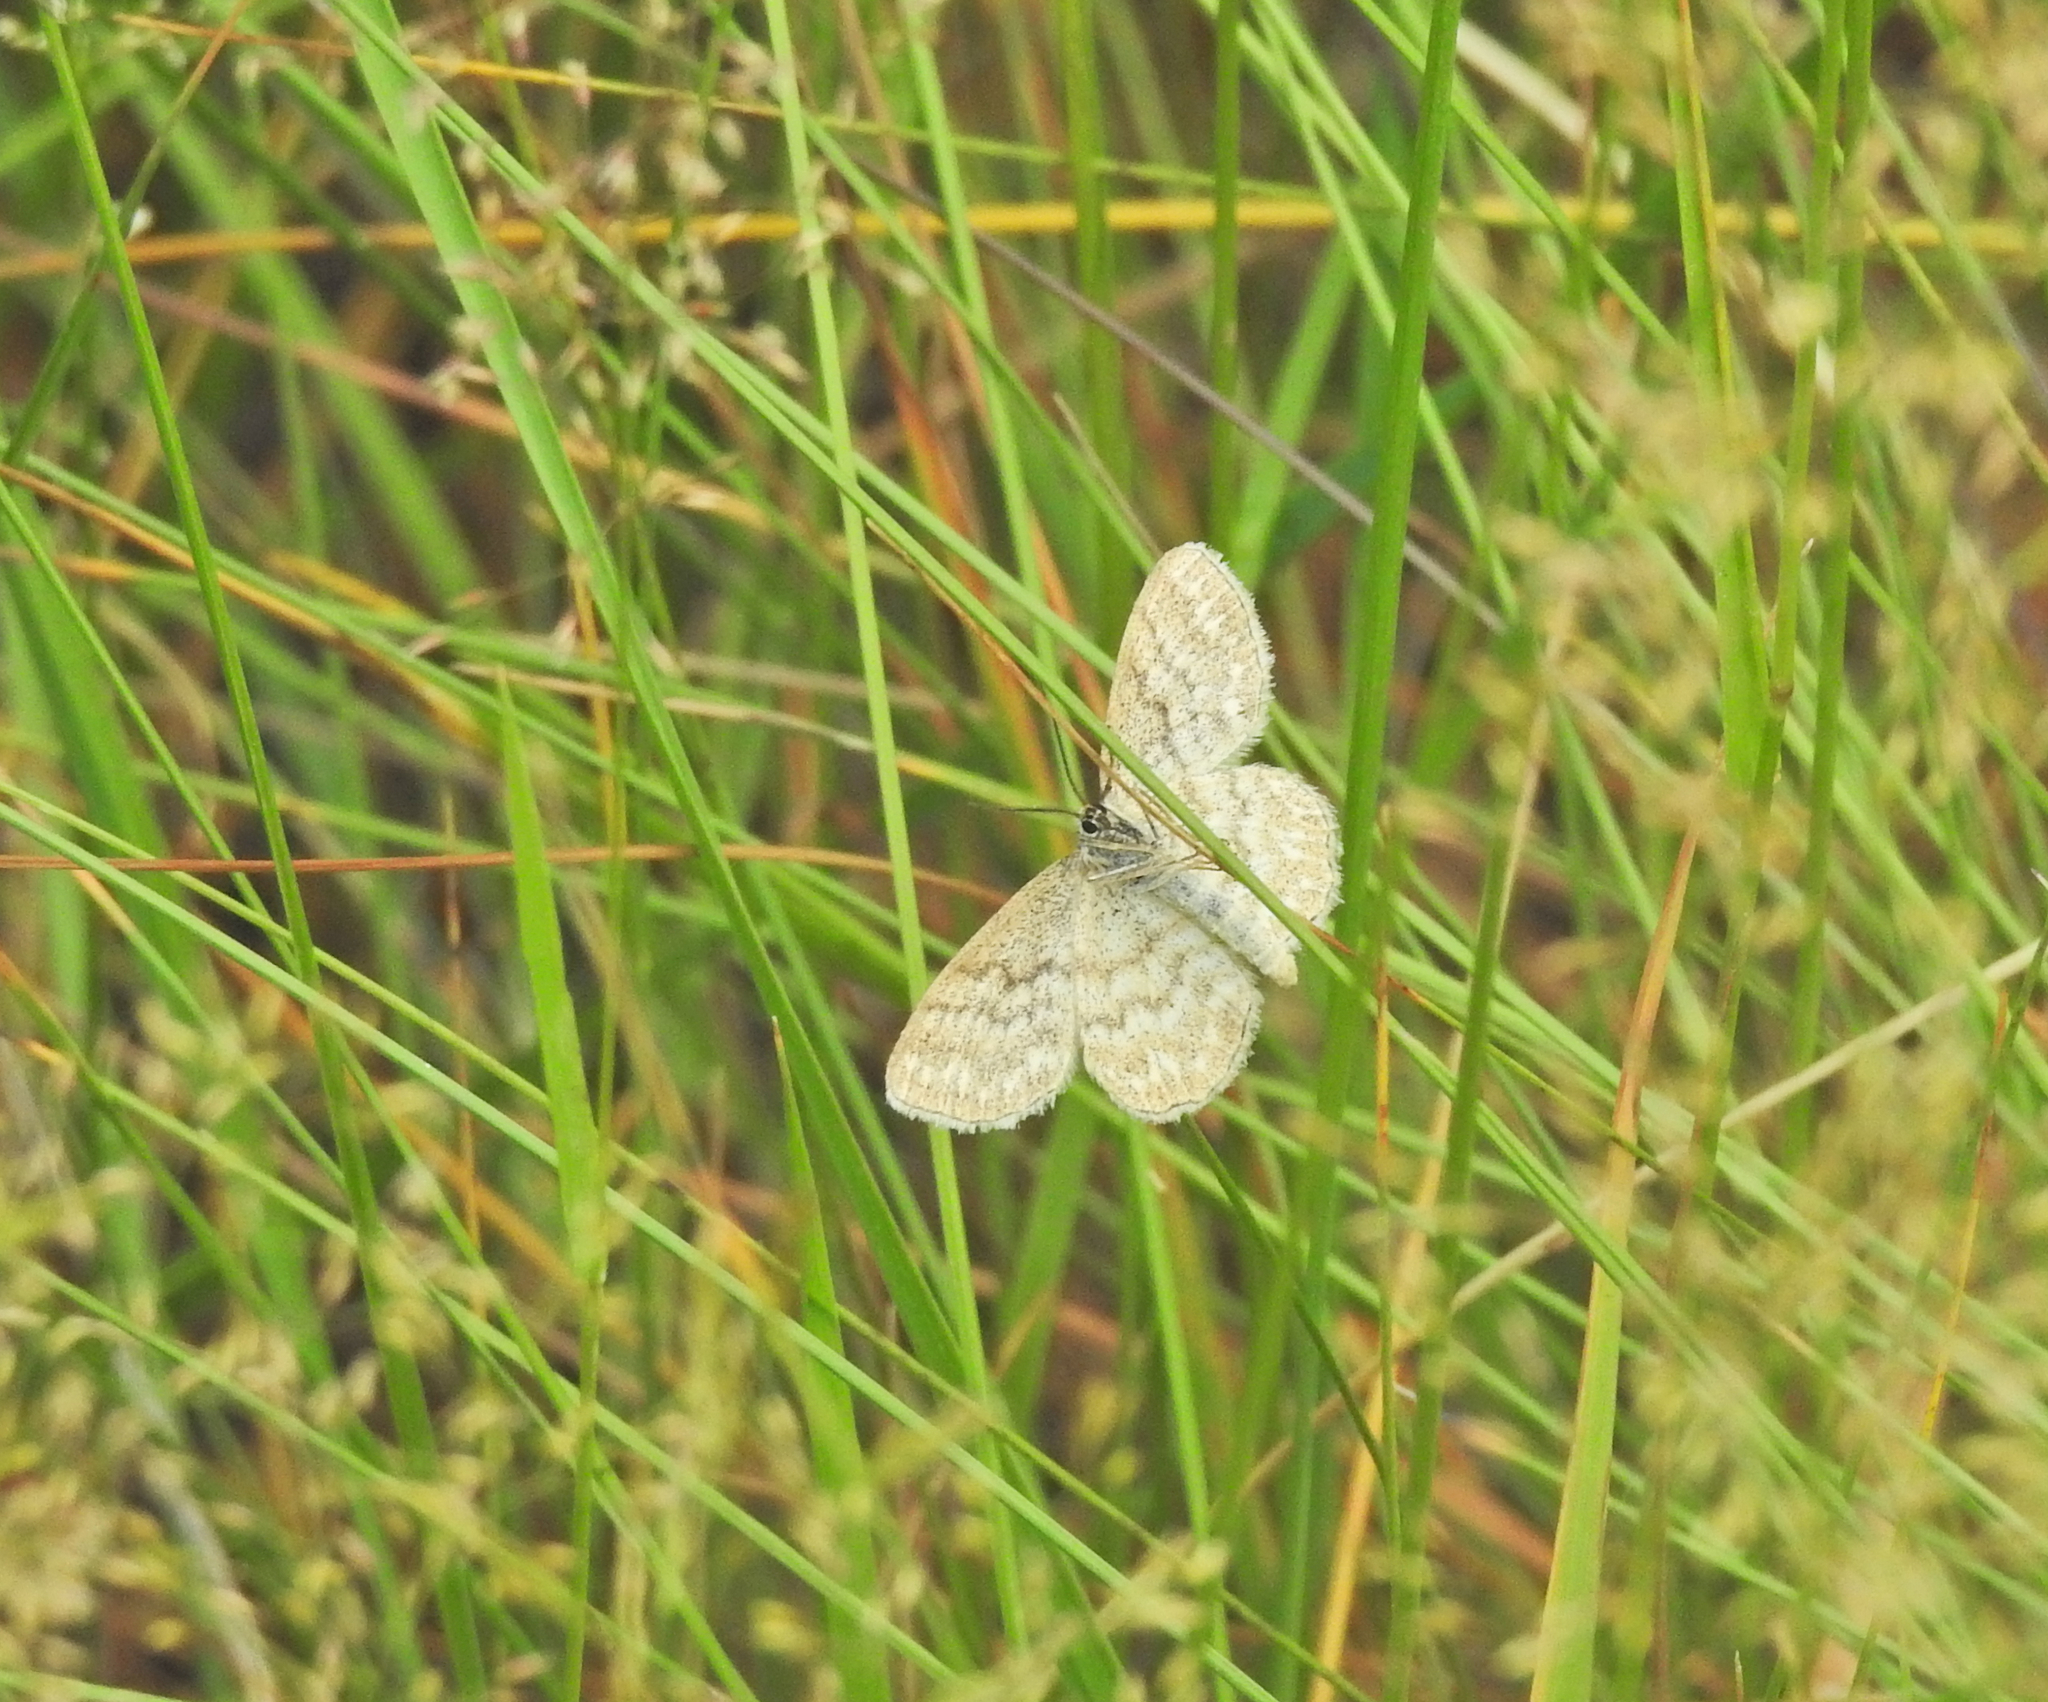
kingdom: Animalia
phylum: Arthropoda
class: Insecta
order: Lepidoptera
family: Geometridae
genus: Scopula
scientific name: Scopula immorata
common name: Lewes wave
